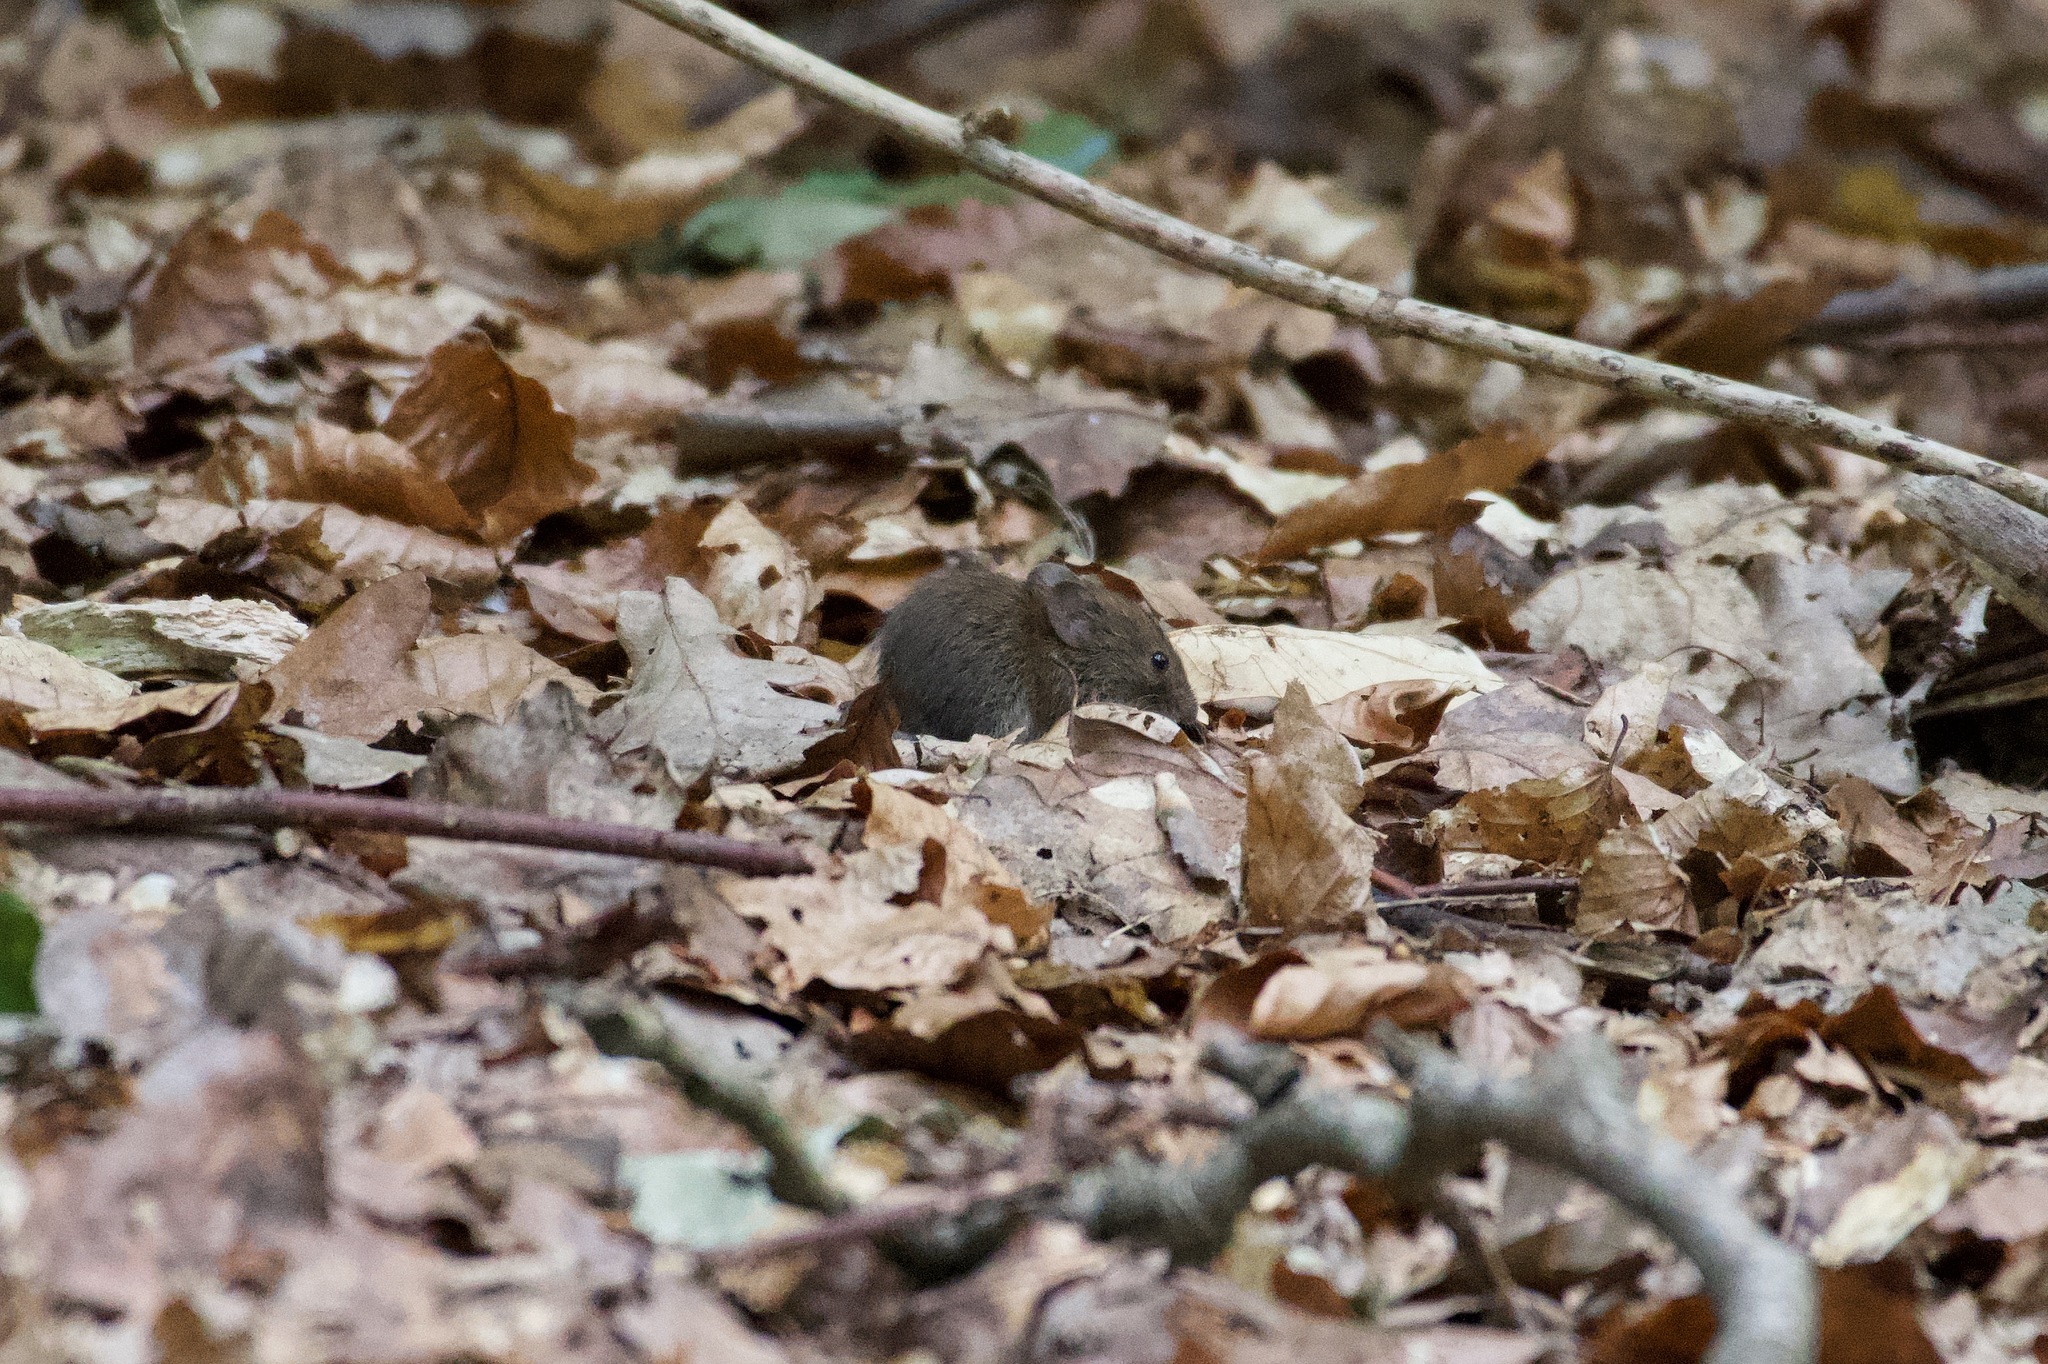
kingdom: Animalia
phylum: Chordata
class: Mammalia
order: Rodentia
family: Cricetidae
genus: Myodes
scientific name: Myodes glareolus
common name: Bank vole
